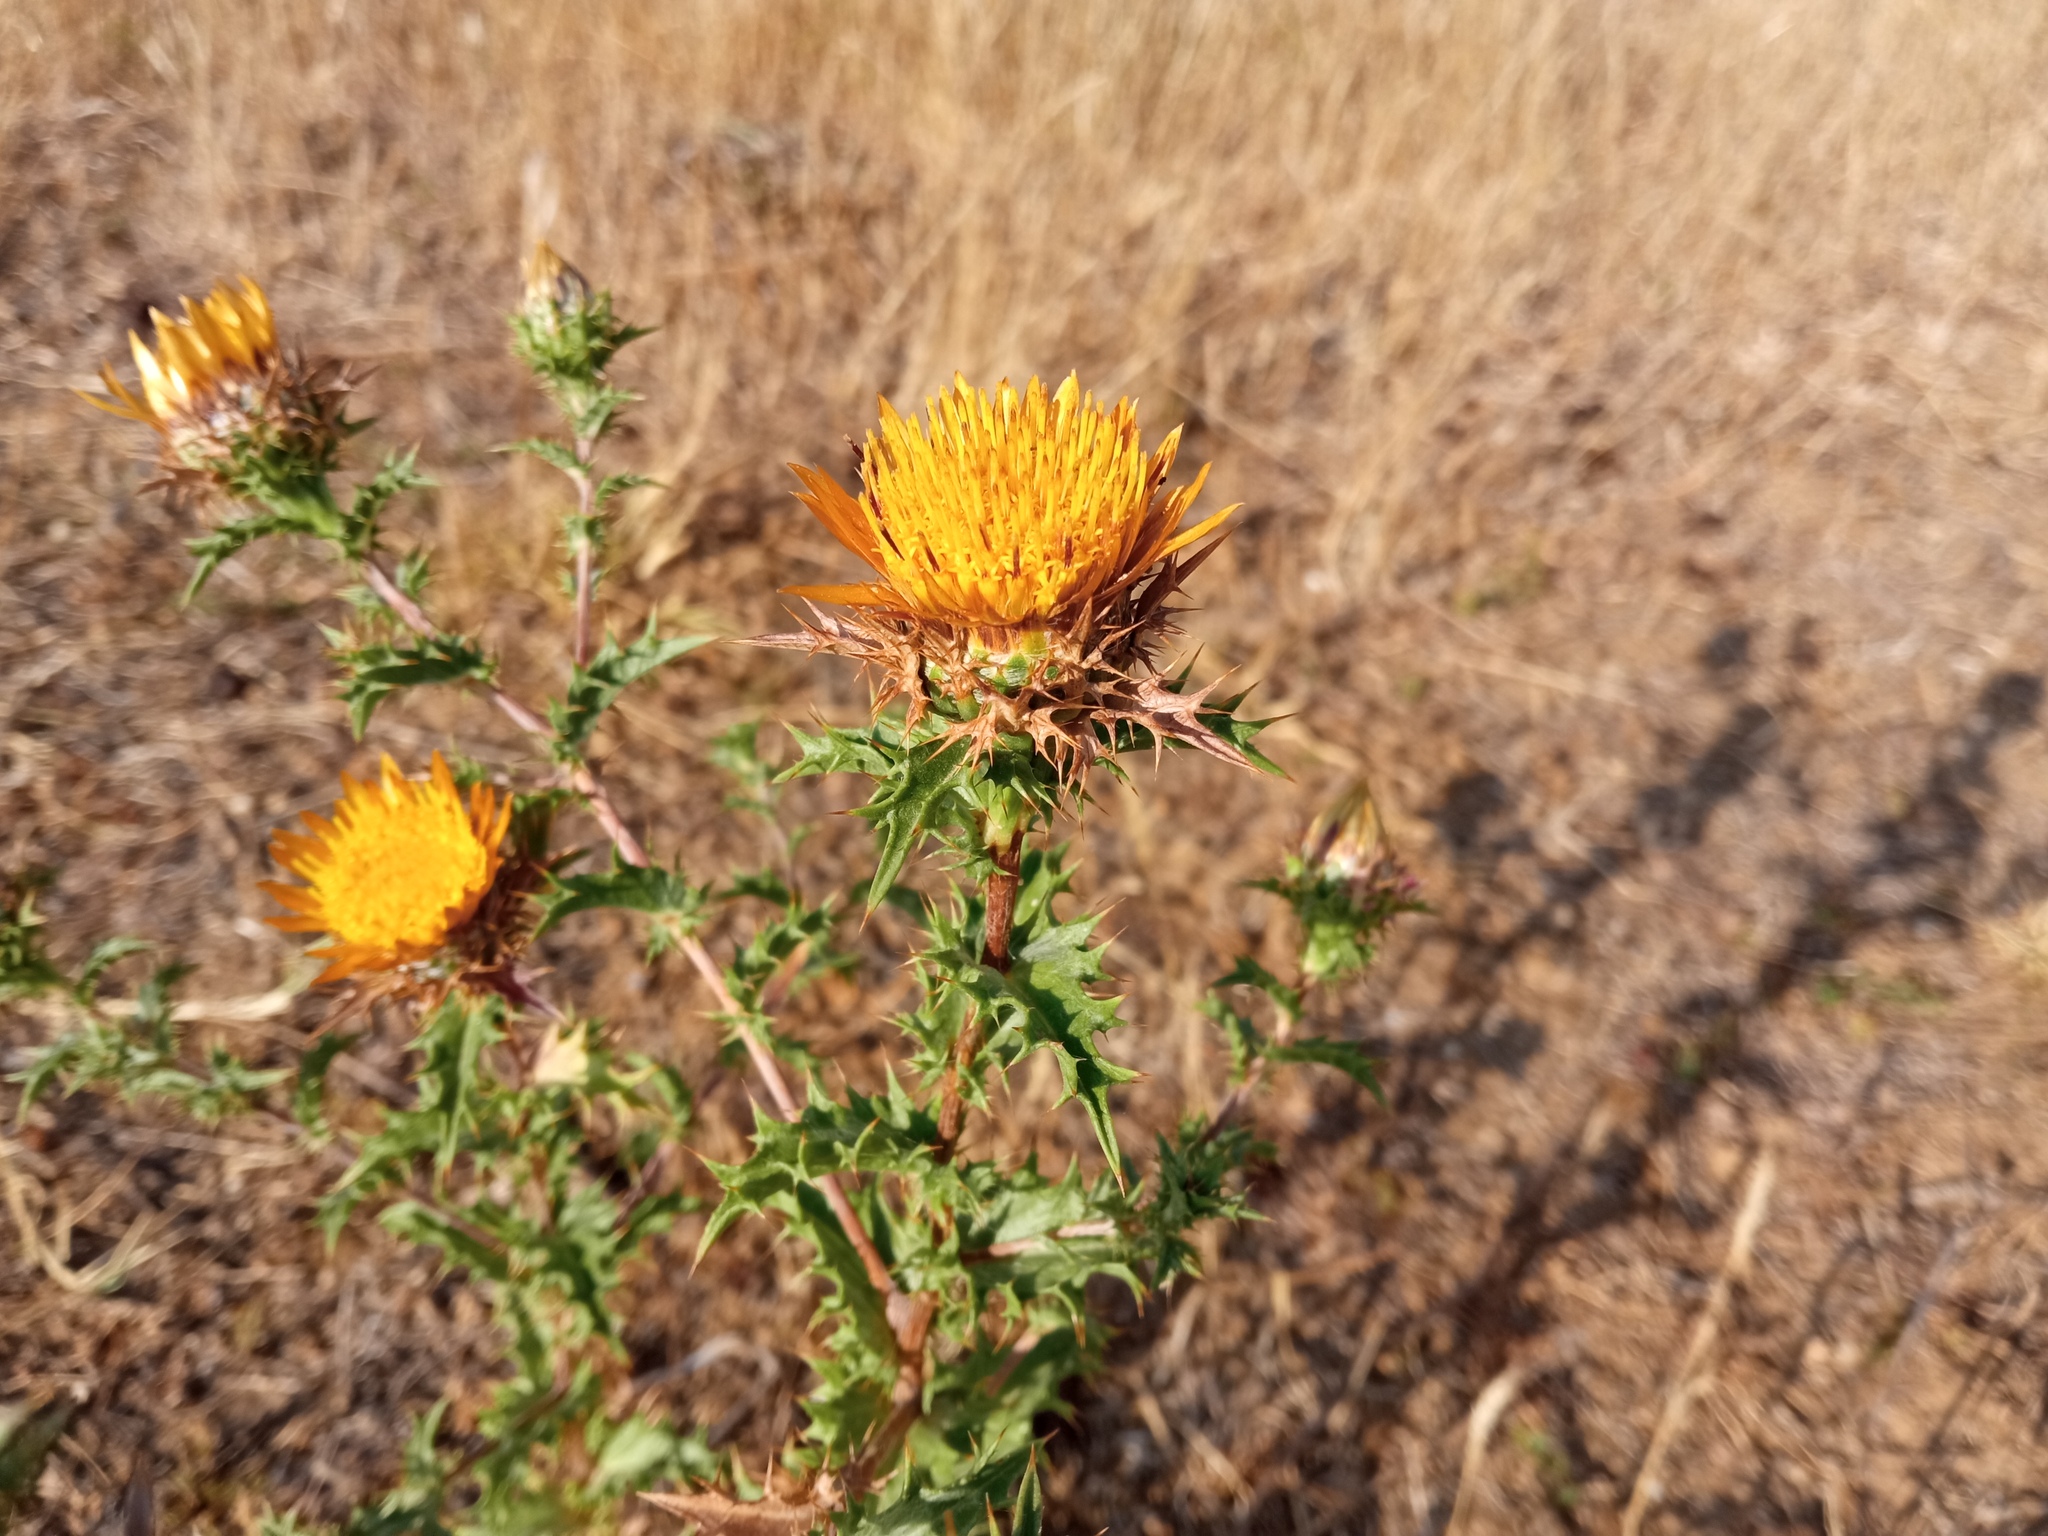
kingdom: Plantae
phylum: Tracheophyta
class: Magnoliopsida
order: Asterales
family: Asteraceae
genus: Carlina
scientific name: Carlina hispanica
